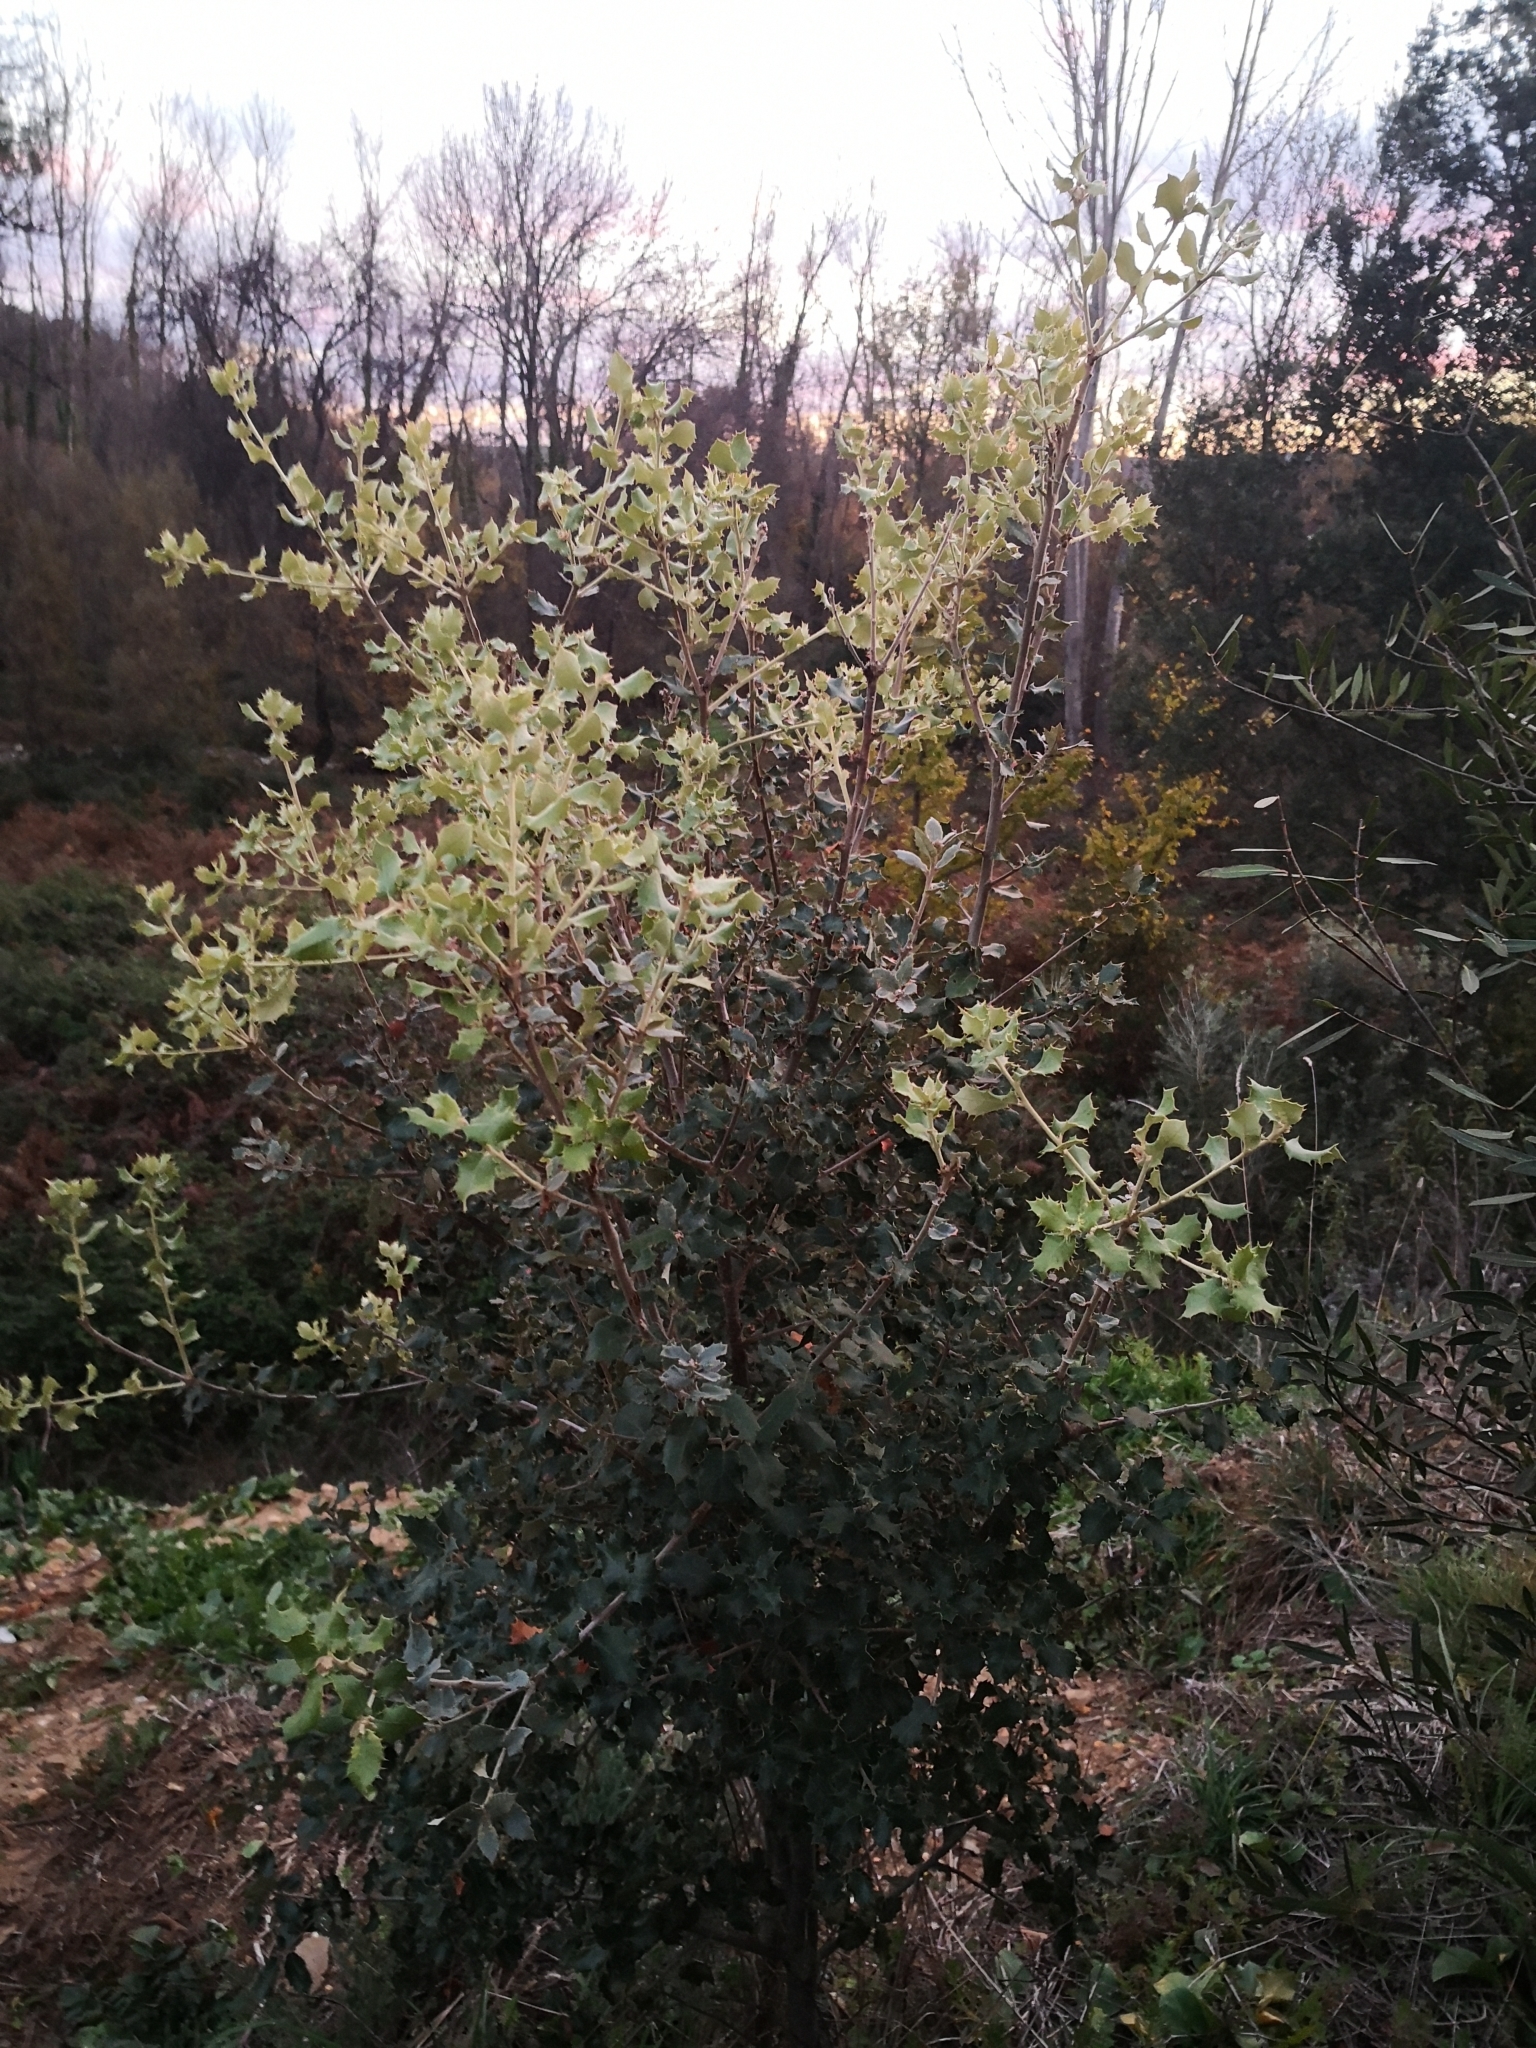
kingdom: Plantae
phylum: Tracheophyta
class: Magnoliopsida
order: Fagales
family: Fagaceae
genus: Quercus
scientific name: Quercus rotundifolia
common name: Holm oak
